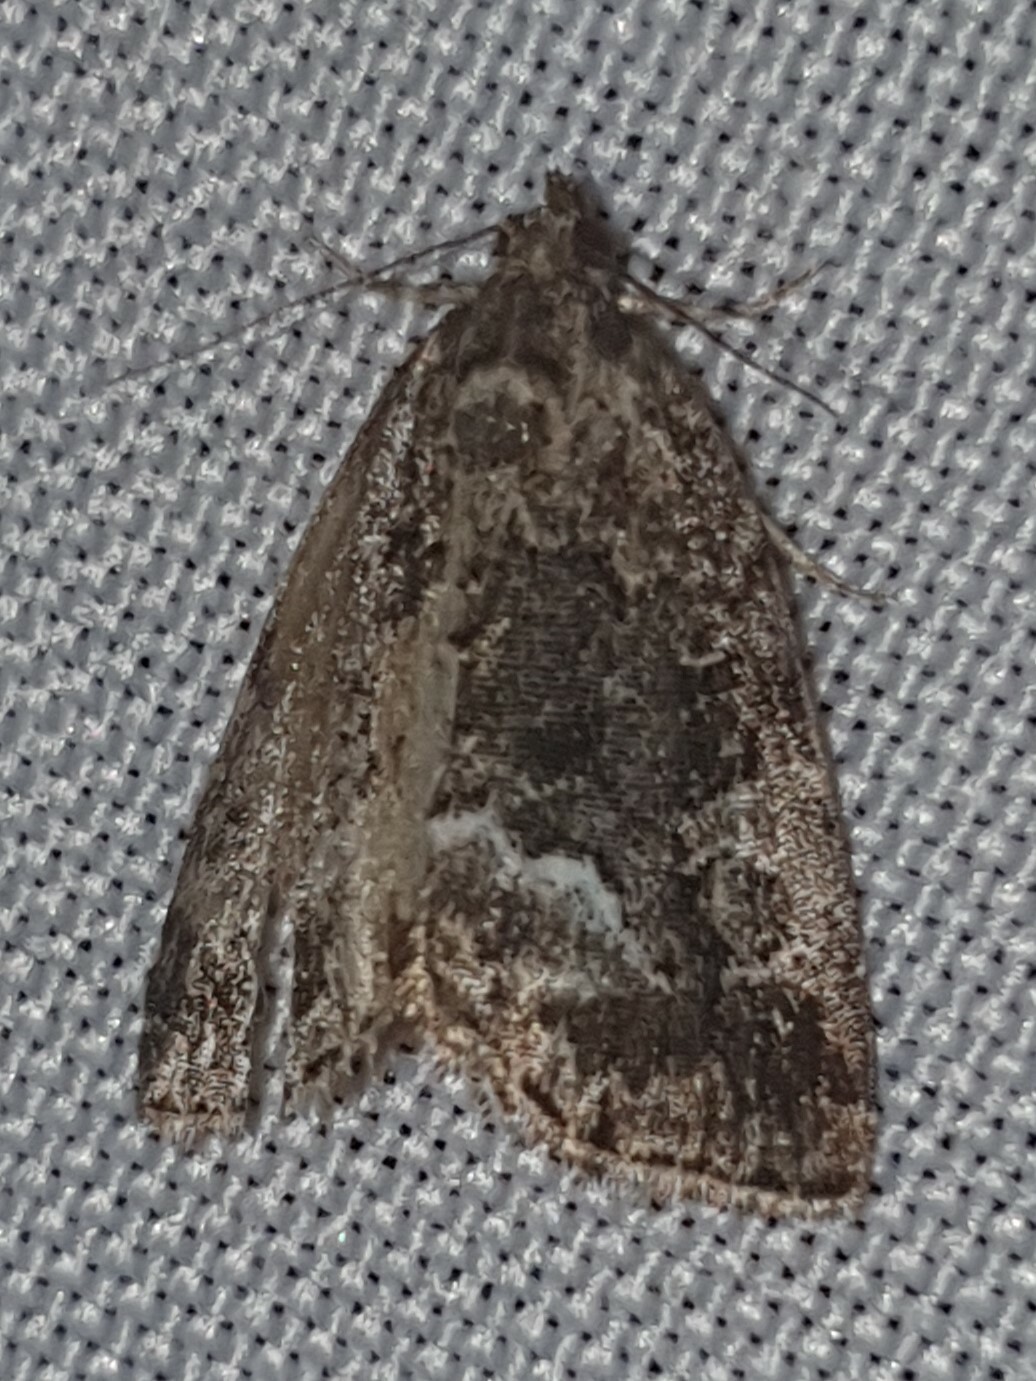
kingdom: Animalia
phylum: Arthropoda
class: Insecta
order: Lepidoptera
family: Noctuidae
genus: Deltote
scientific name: Deltote pygarga
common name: Marbled white spot
